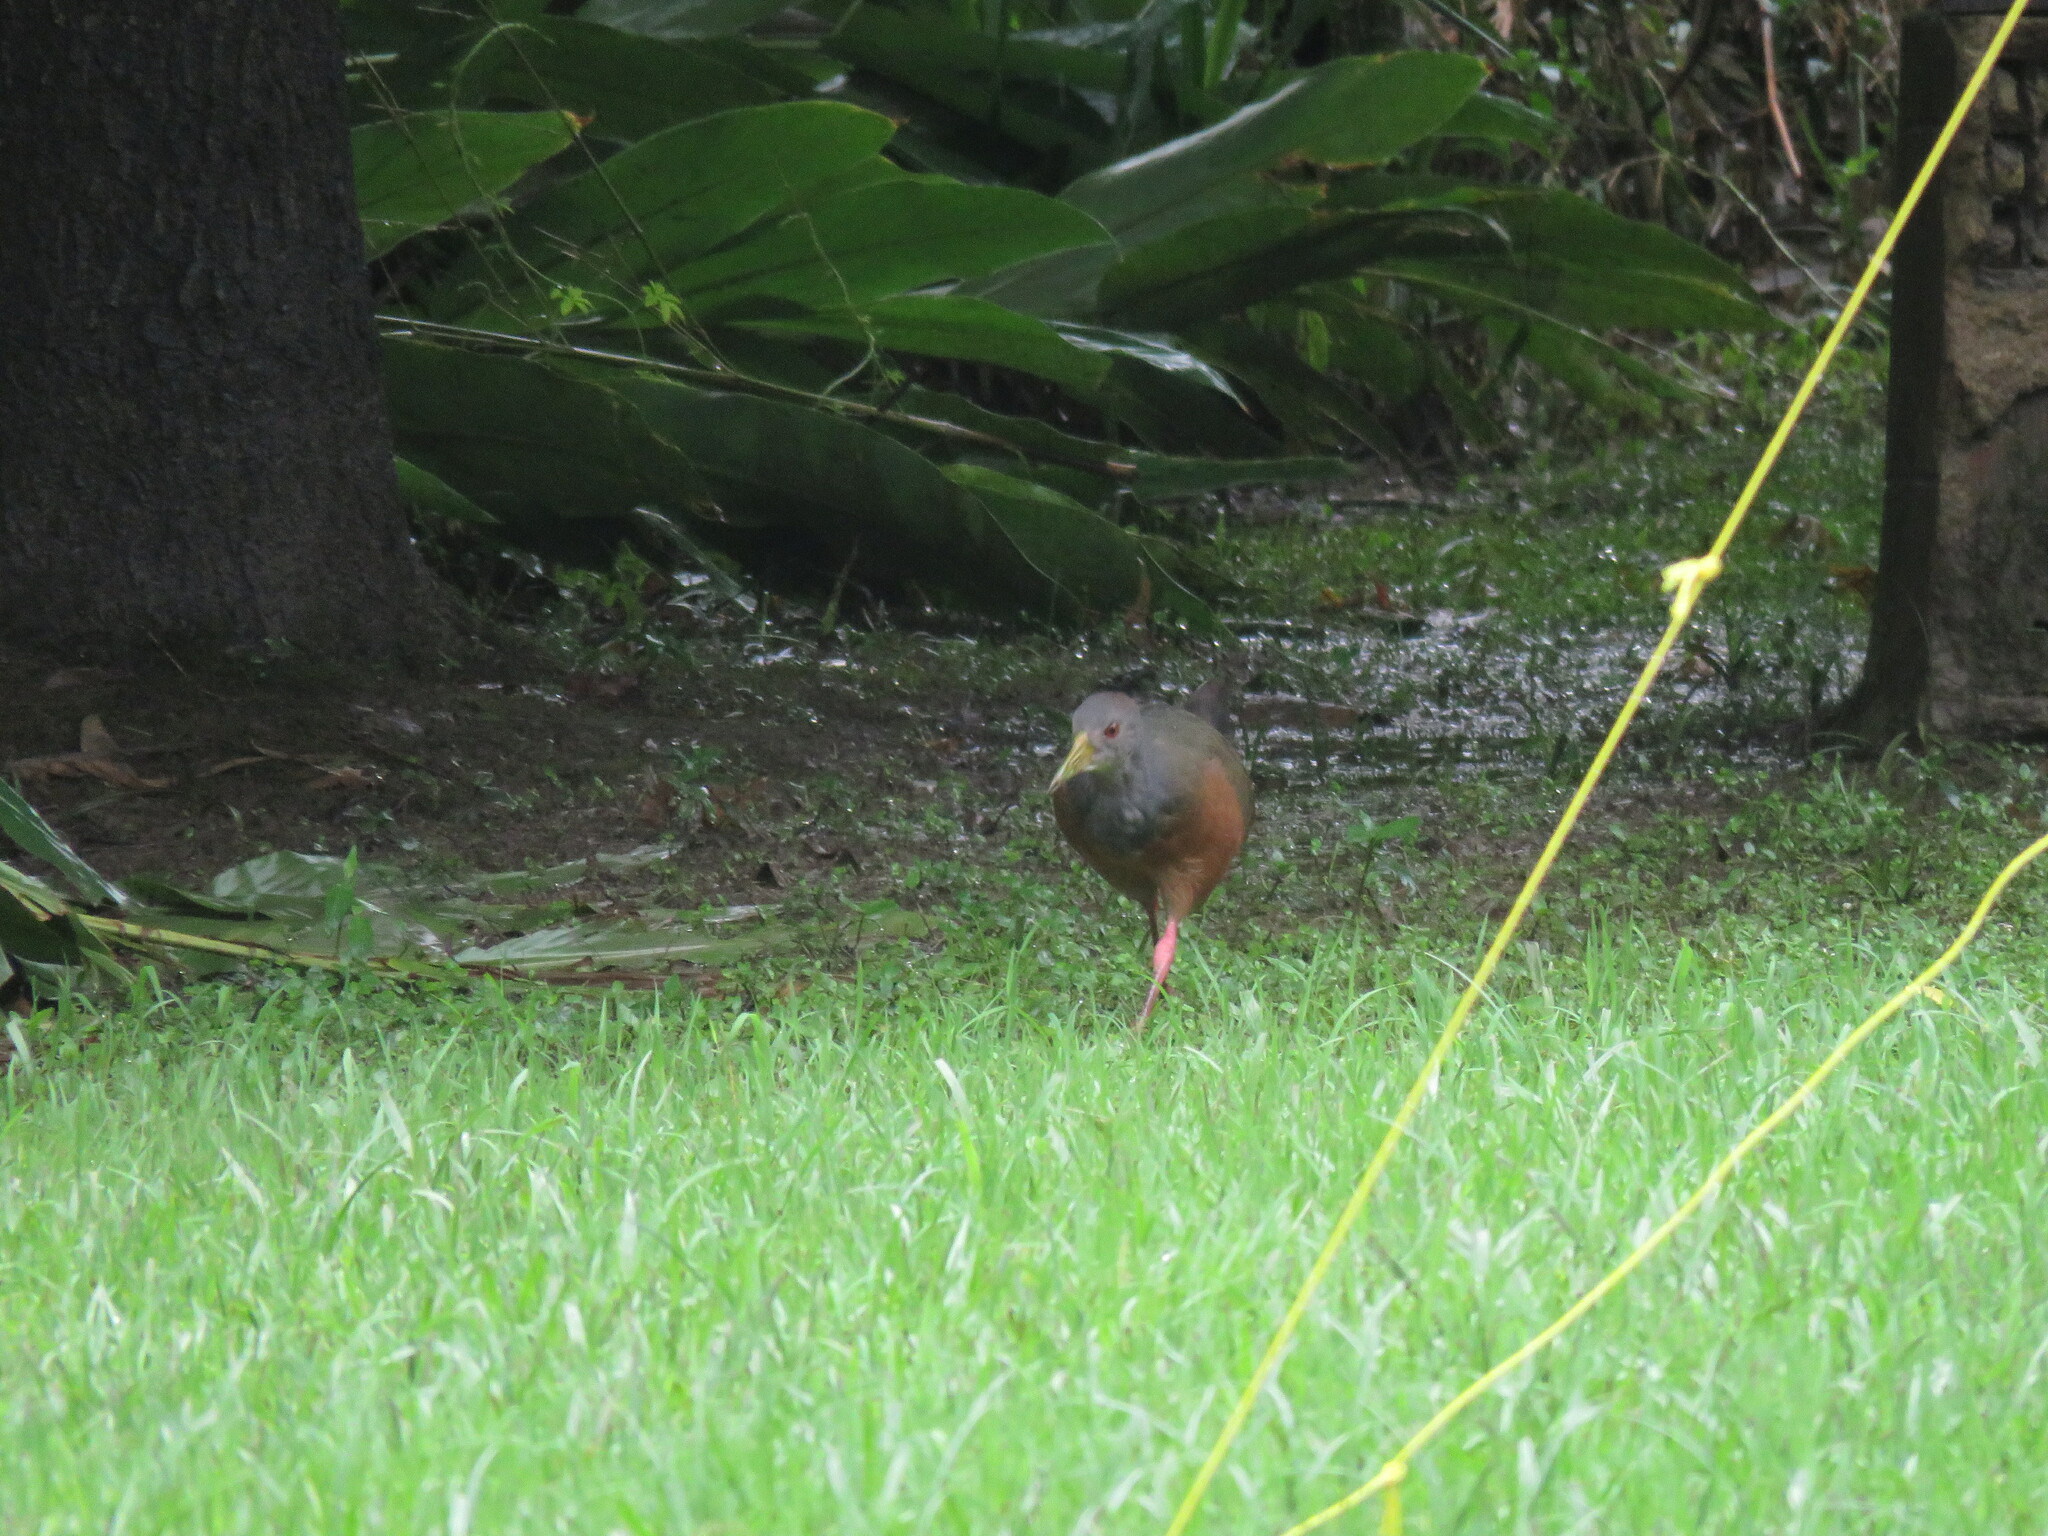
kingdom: Animalia
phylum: Chordata
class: Aves
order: Gruiformes
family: Rallidae
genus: Aramides
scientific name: Aramides cajanea
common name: Gray-necked wood-rail
